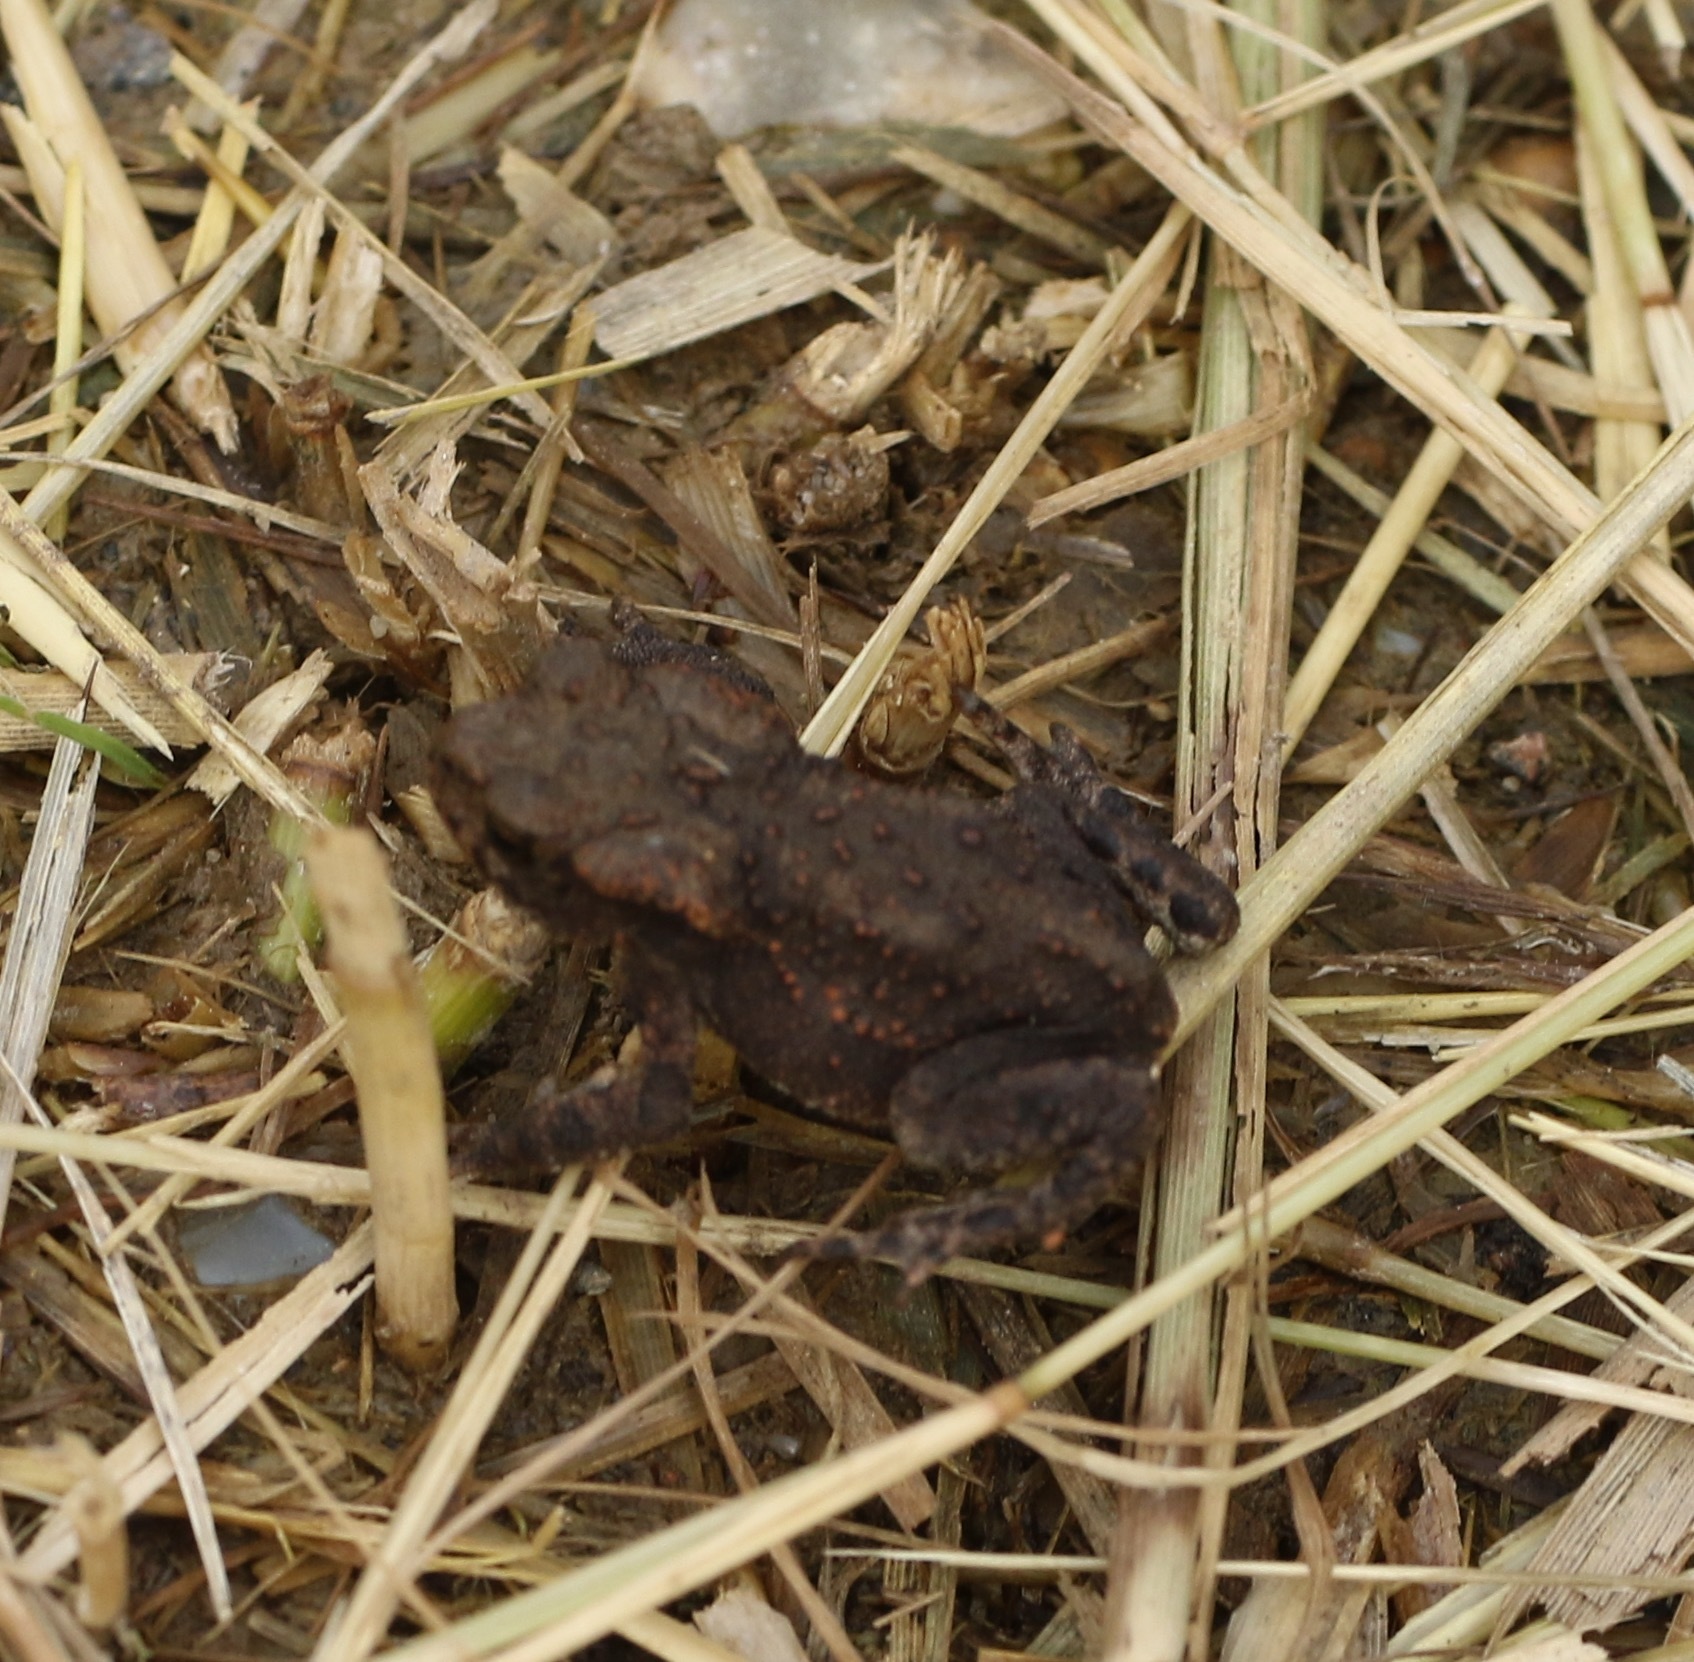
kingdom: Animalia
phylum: Chordata
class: Amphibia
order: Anura
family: Bufonidae
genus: Bufo
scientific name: Bufo bufo
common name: Common toad
